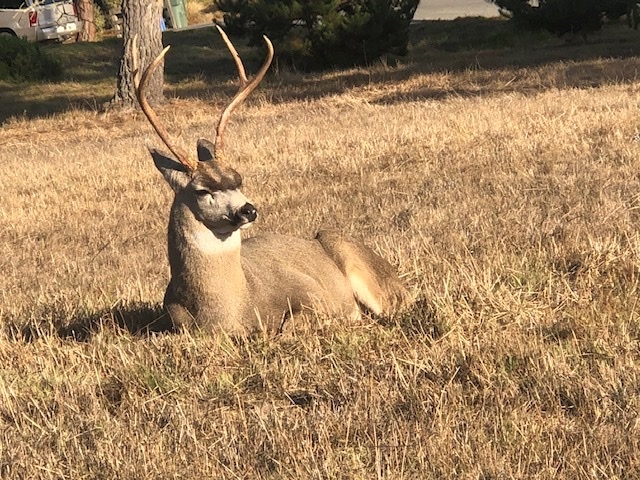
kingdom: Animalia
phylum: Chordata
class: Mammalia
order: Artiodactyla
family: Cervidae
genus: Odocoileus
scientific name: Odocoileus hemionus
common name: Mule deer
